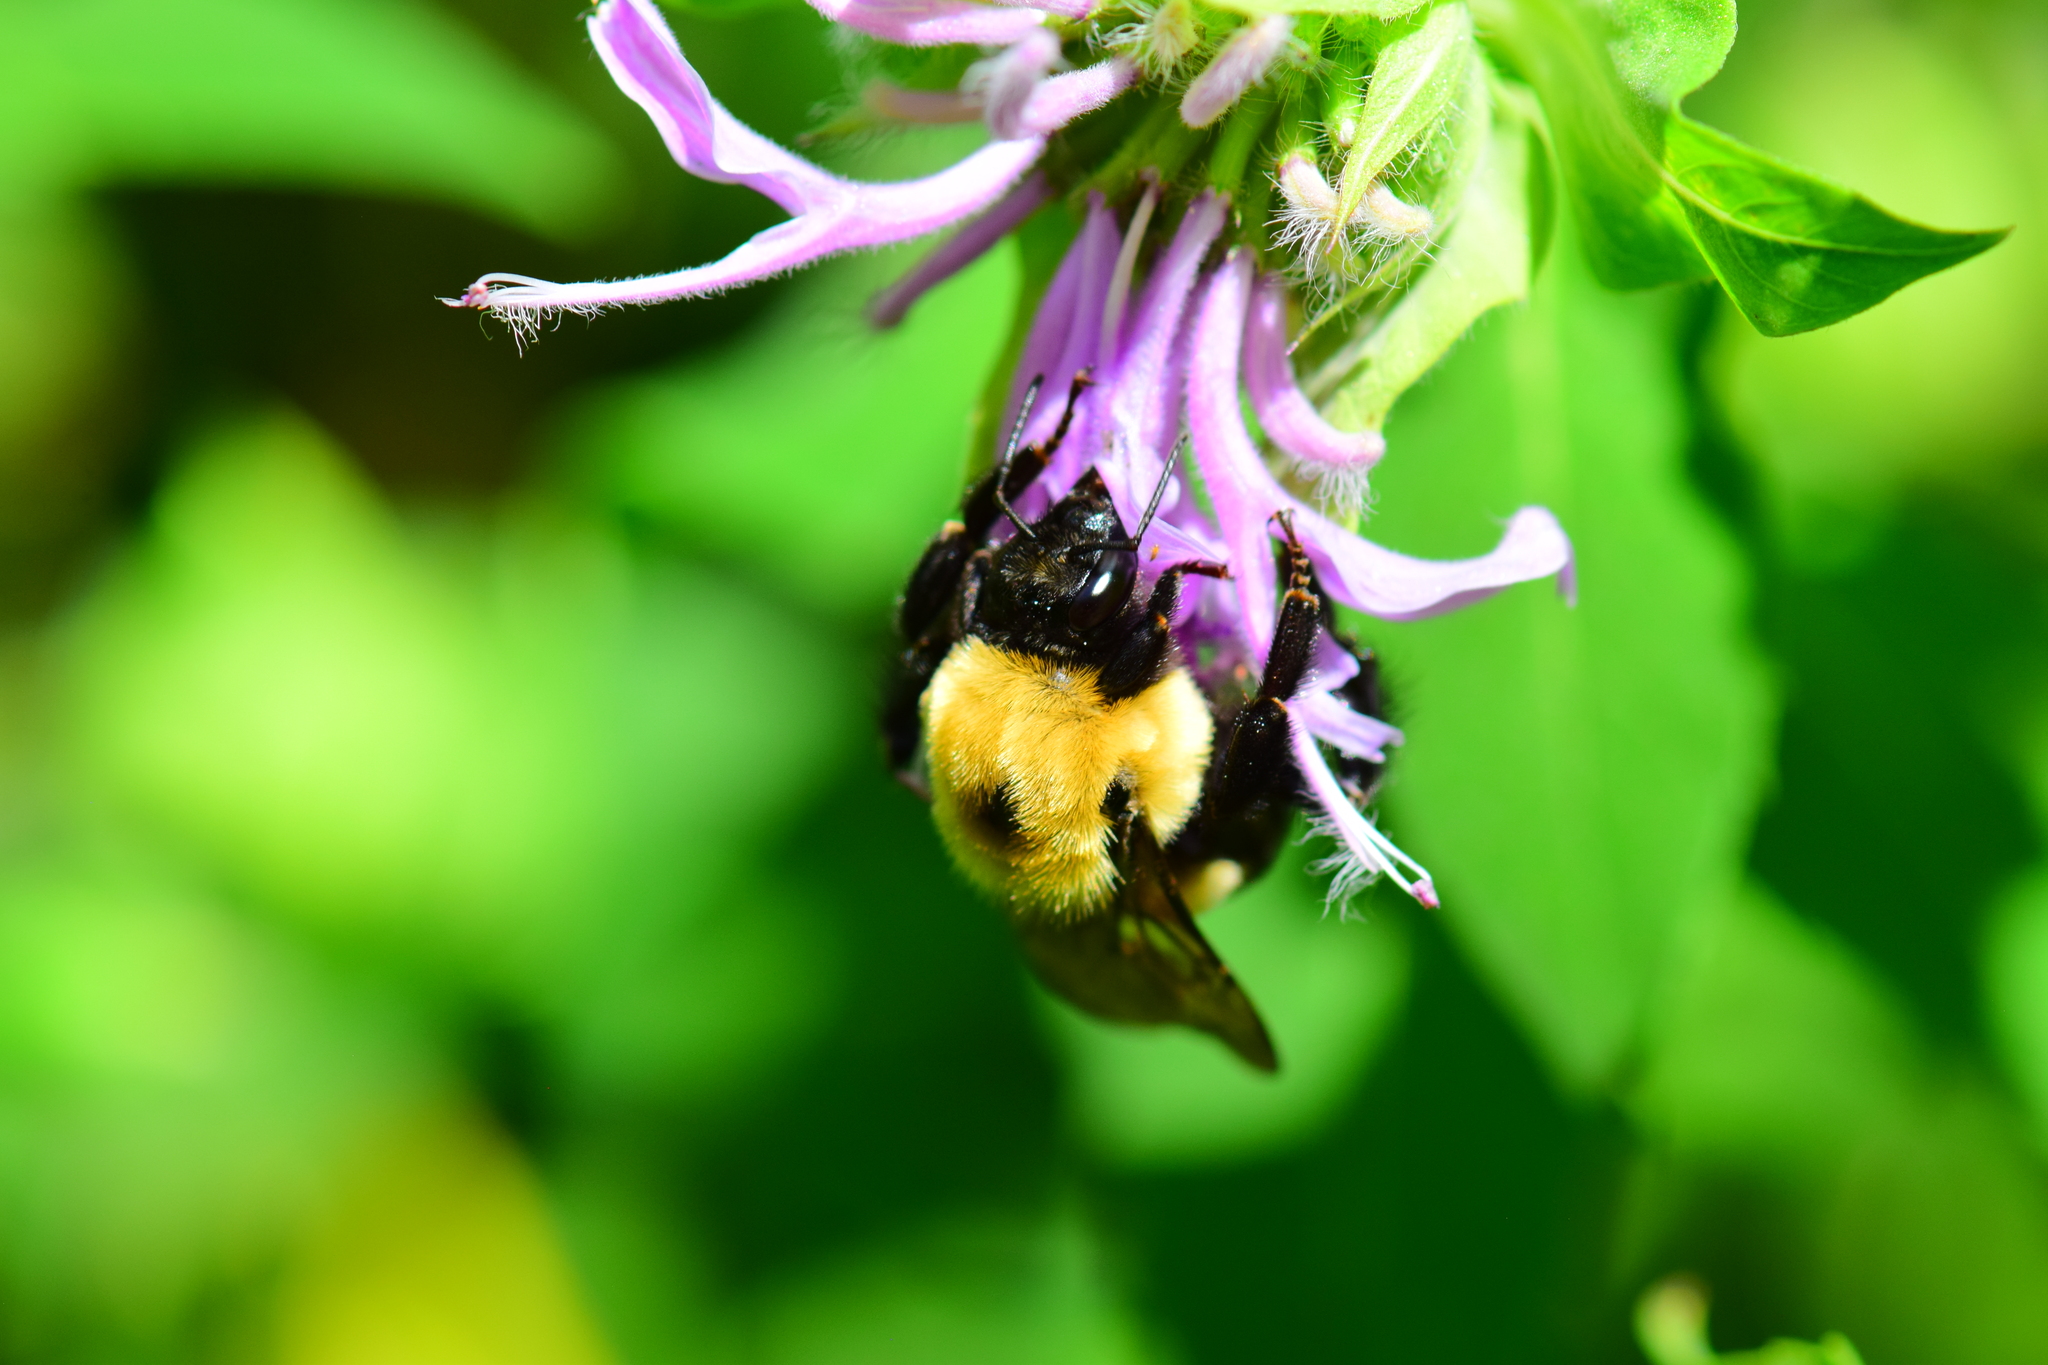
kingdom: Animalia
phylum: Arthropoda
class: Insecta
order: Hymenoptera
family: Apidae
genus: Bombus
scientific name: Bombus griseocollis
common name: Brown-belted bumble bee
